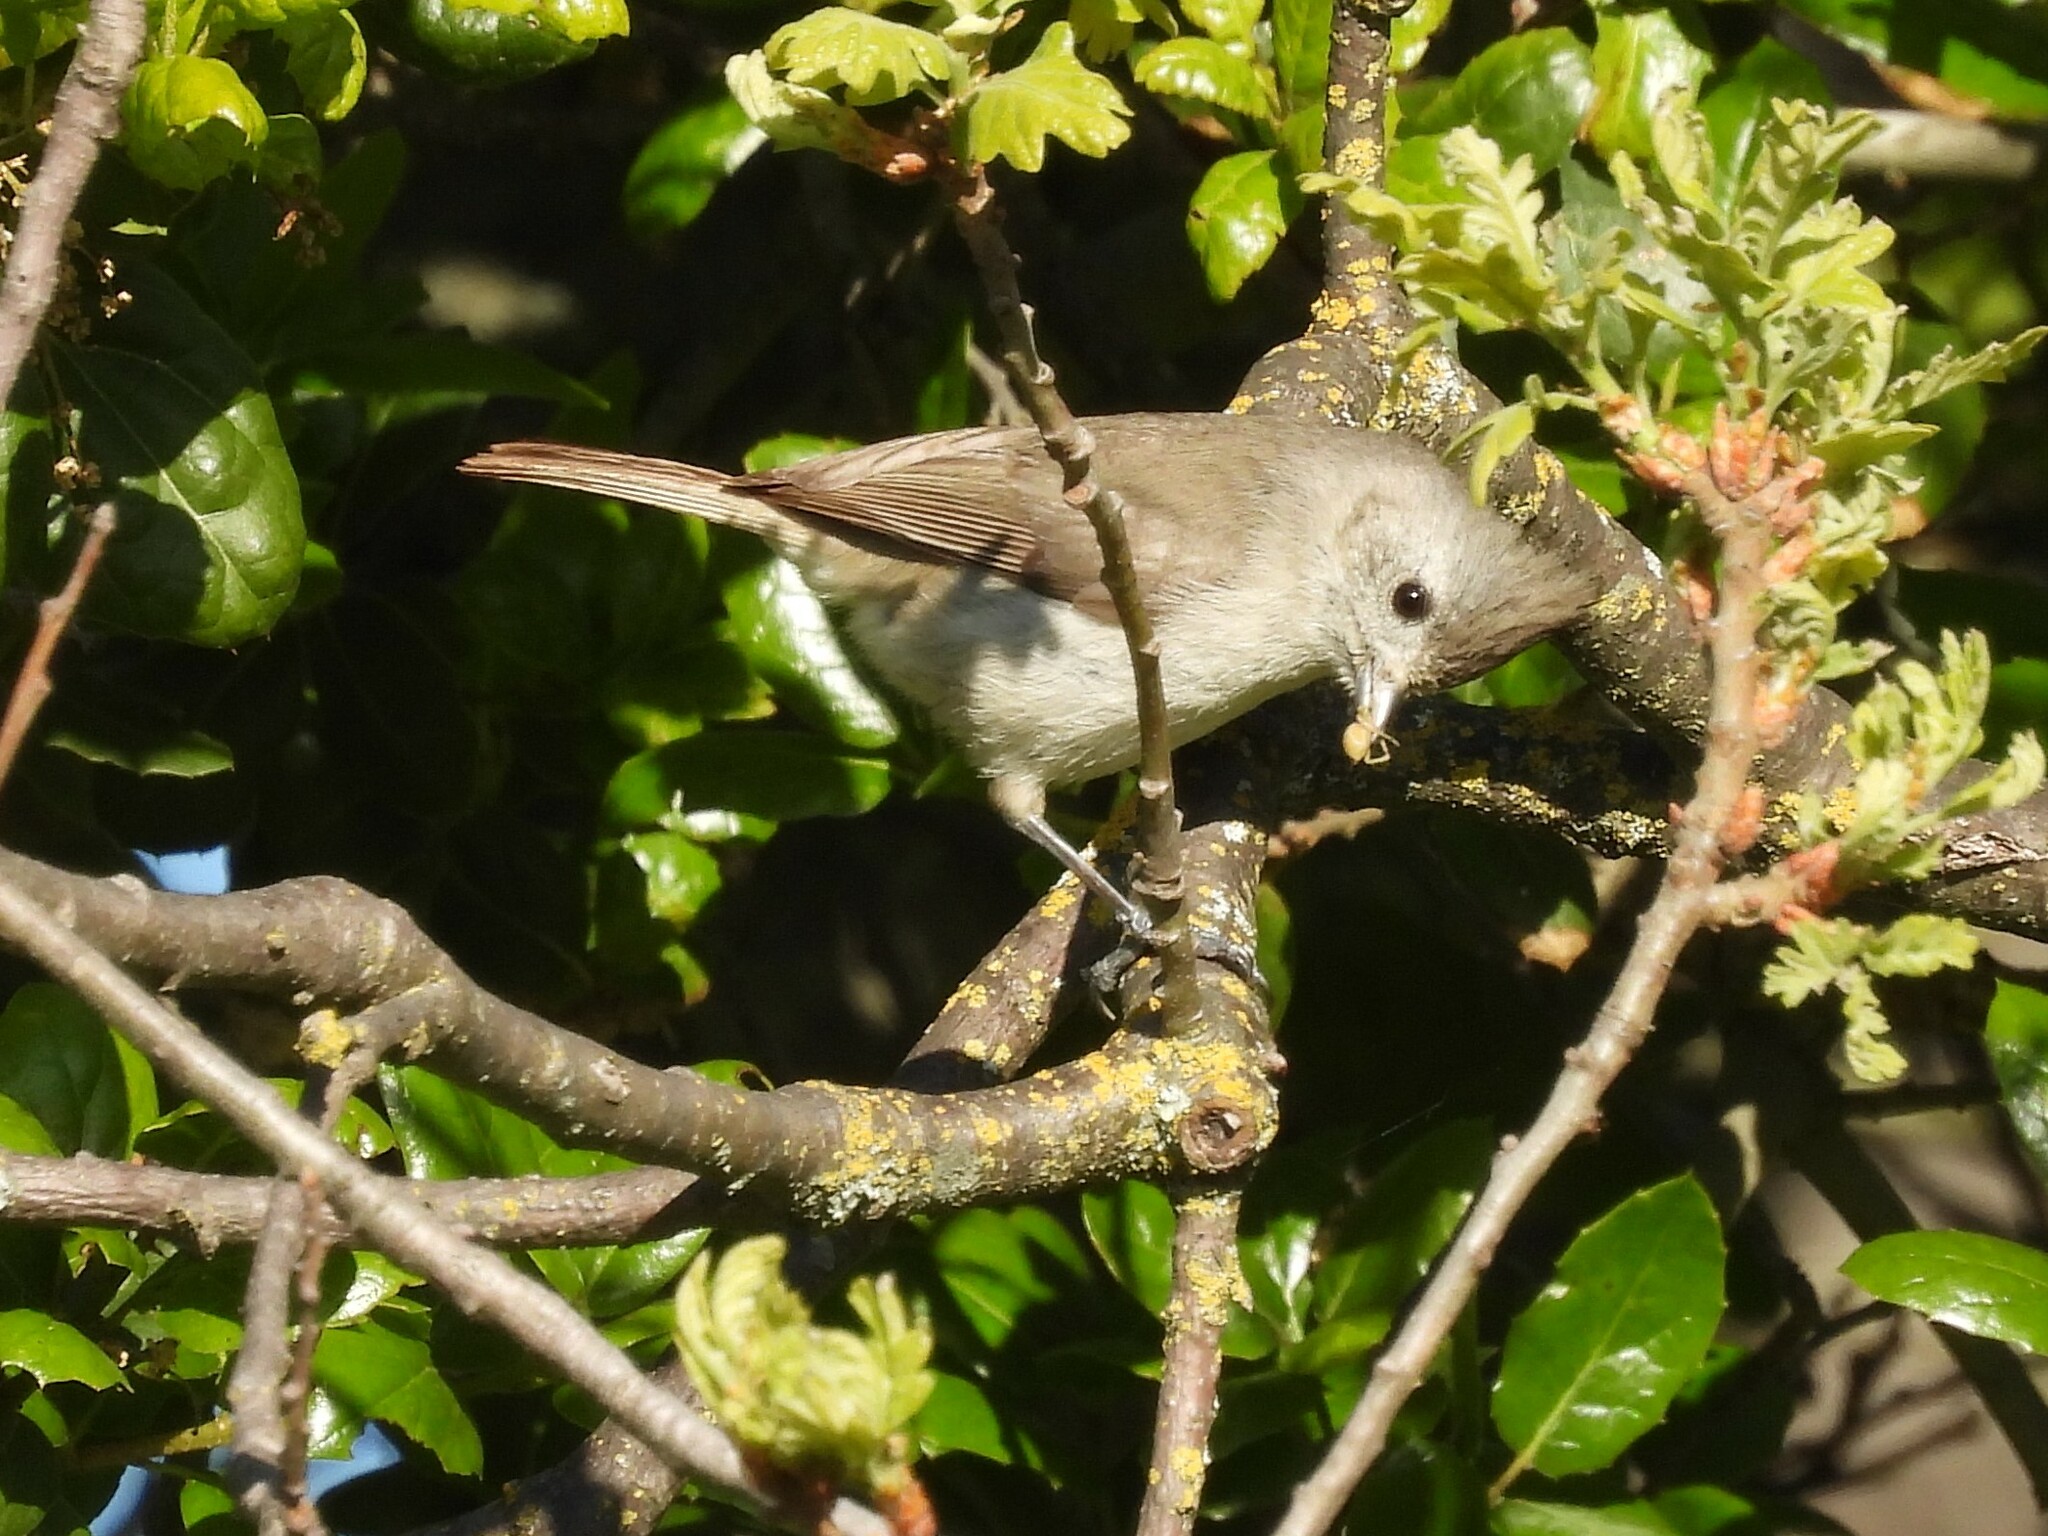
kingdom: Animalia
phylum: Chordata
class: Aves
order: Passeriformes
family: Paridae
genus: Baeolophus
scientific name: Baeolophus inornatus
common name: Oak titmouse
